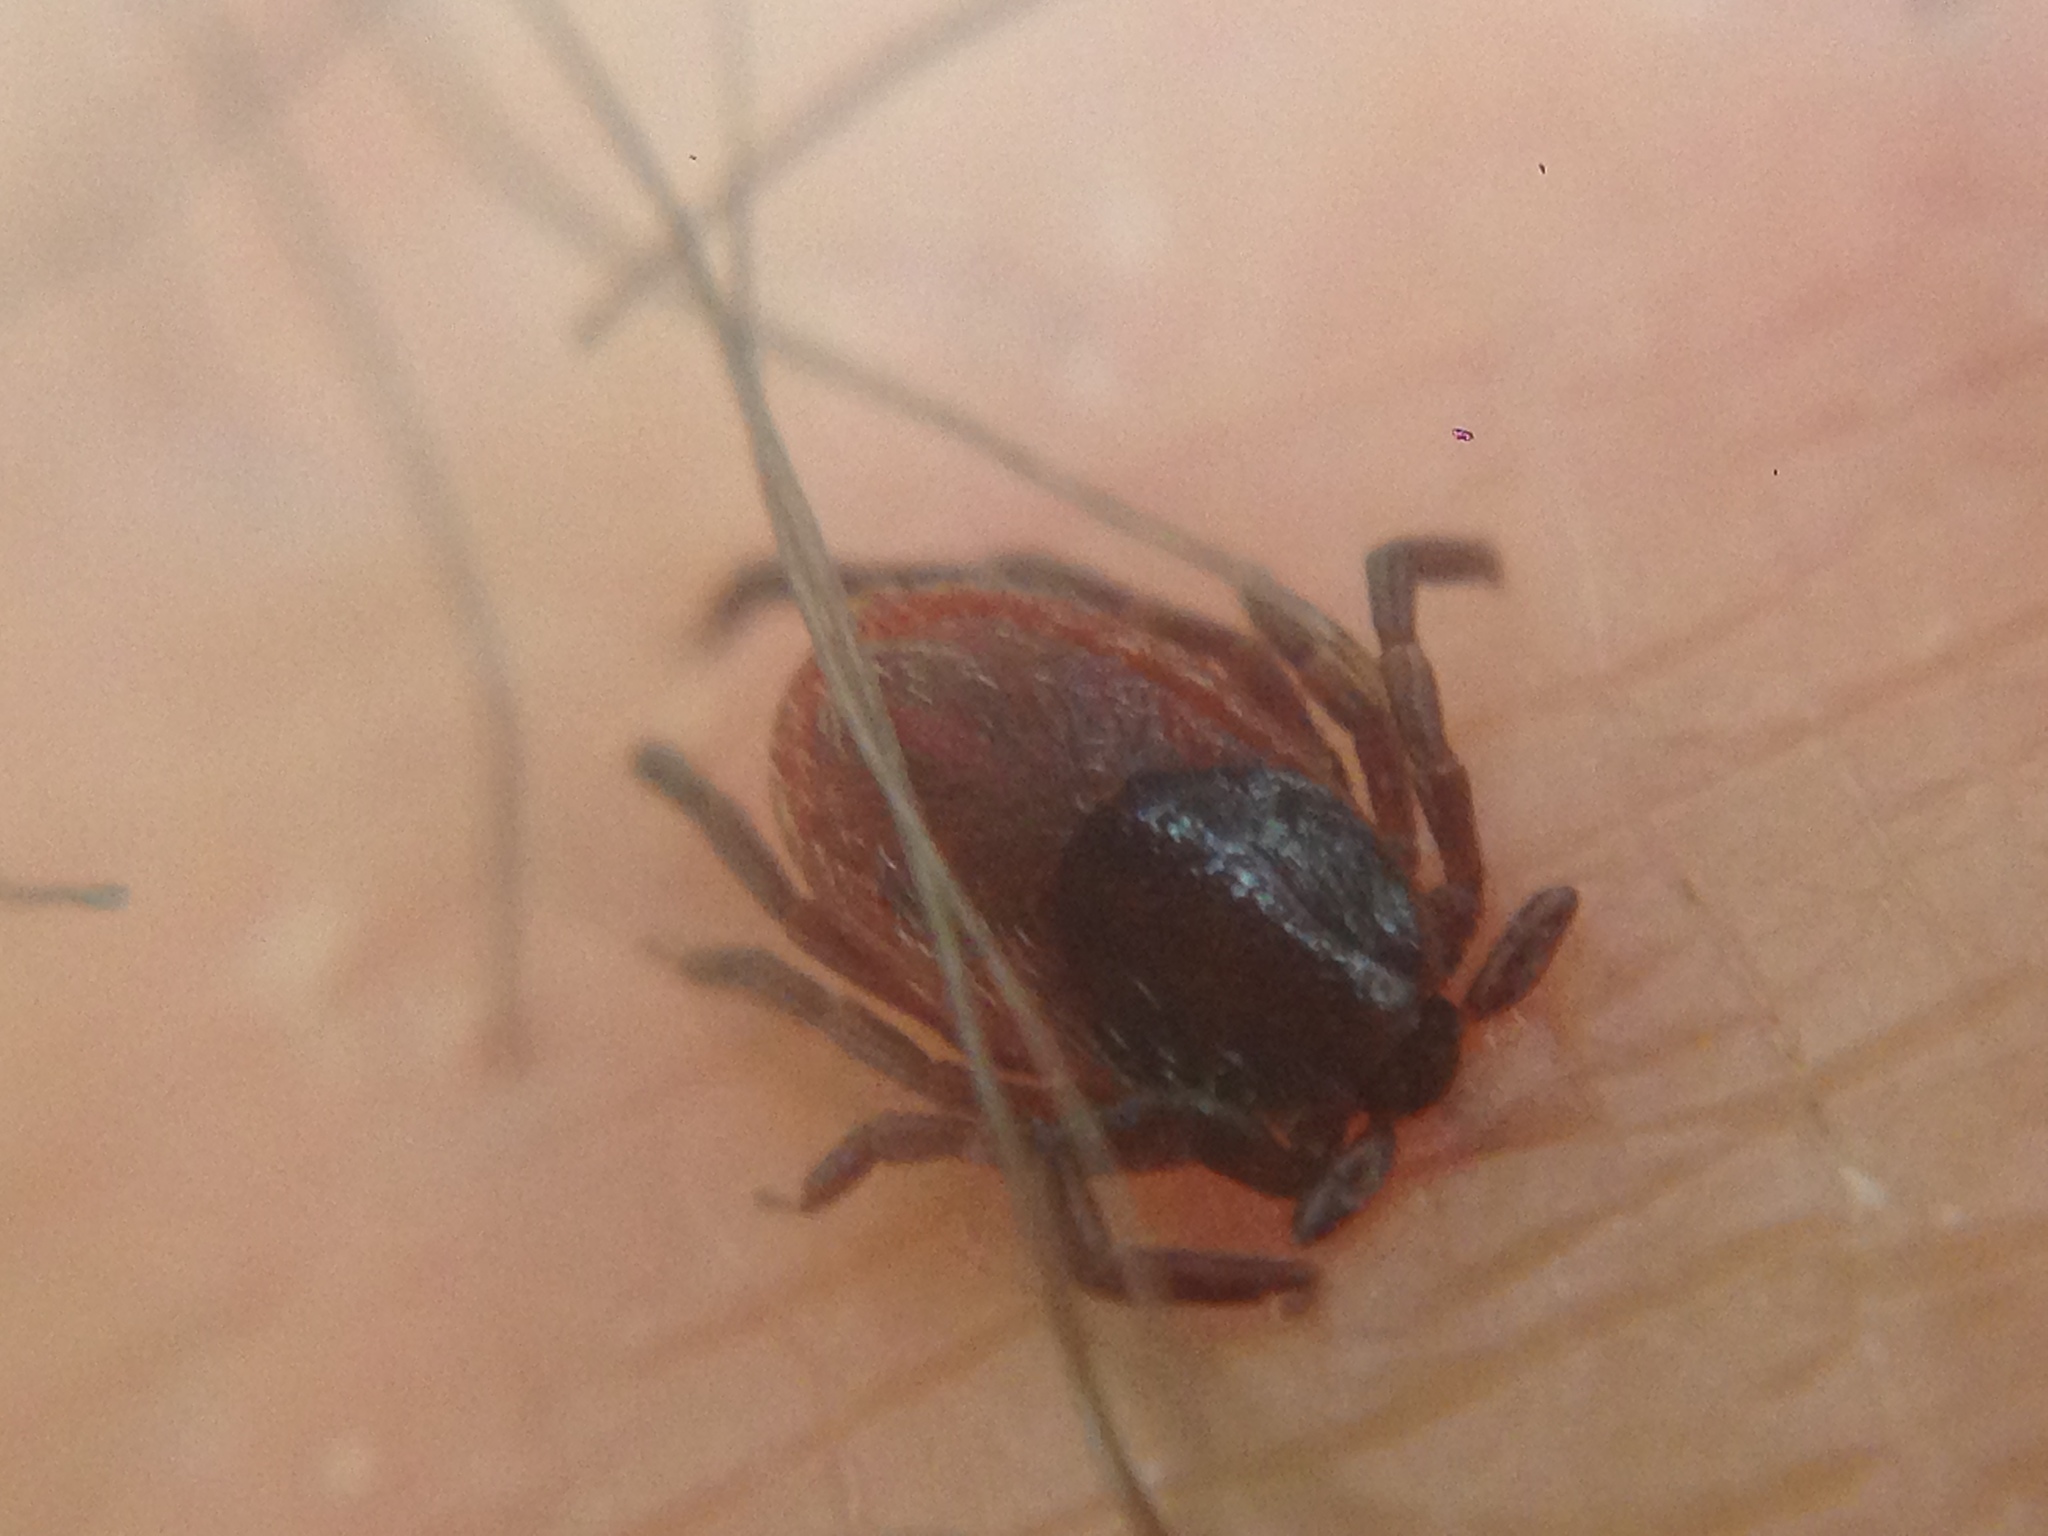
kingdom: Animalia
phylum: Arthropoda
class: Arachnida
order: Ixodida
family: Ixodidae
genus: Ixodes
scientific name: Ixodes pacificus
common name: California black-legged tick
